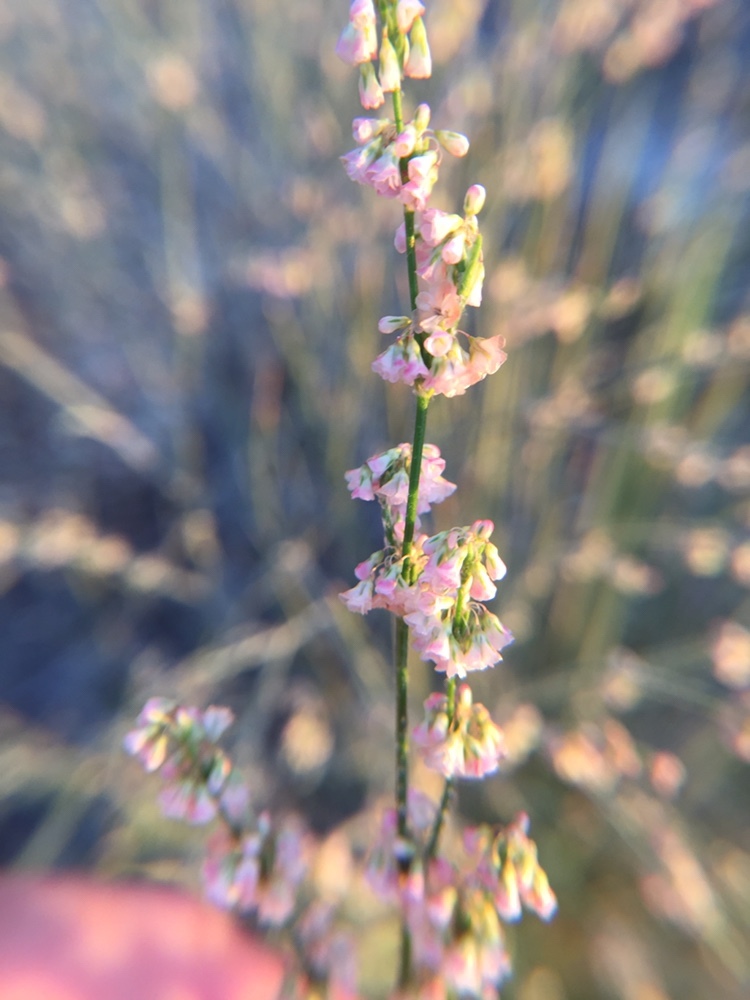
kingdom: Plantae
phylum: Tracheophyta
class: Magnoliopsida
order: Caryophyllales
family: Polygonaceae
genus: Eriogonum
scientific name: Eriogonum polycladon
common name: Sorrel wild buckwheat
